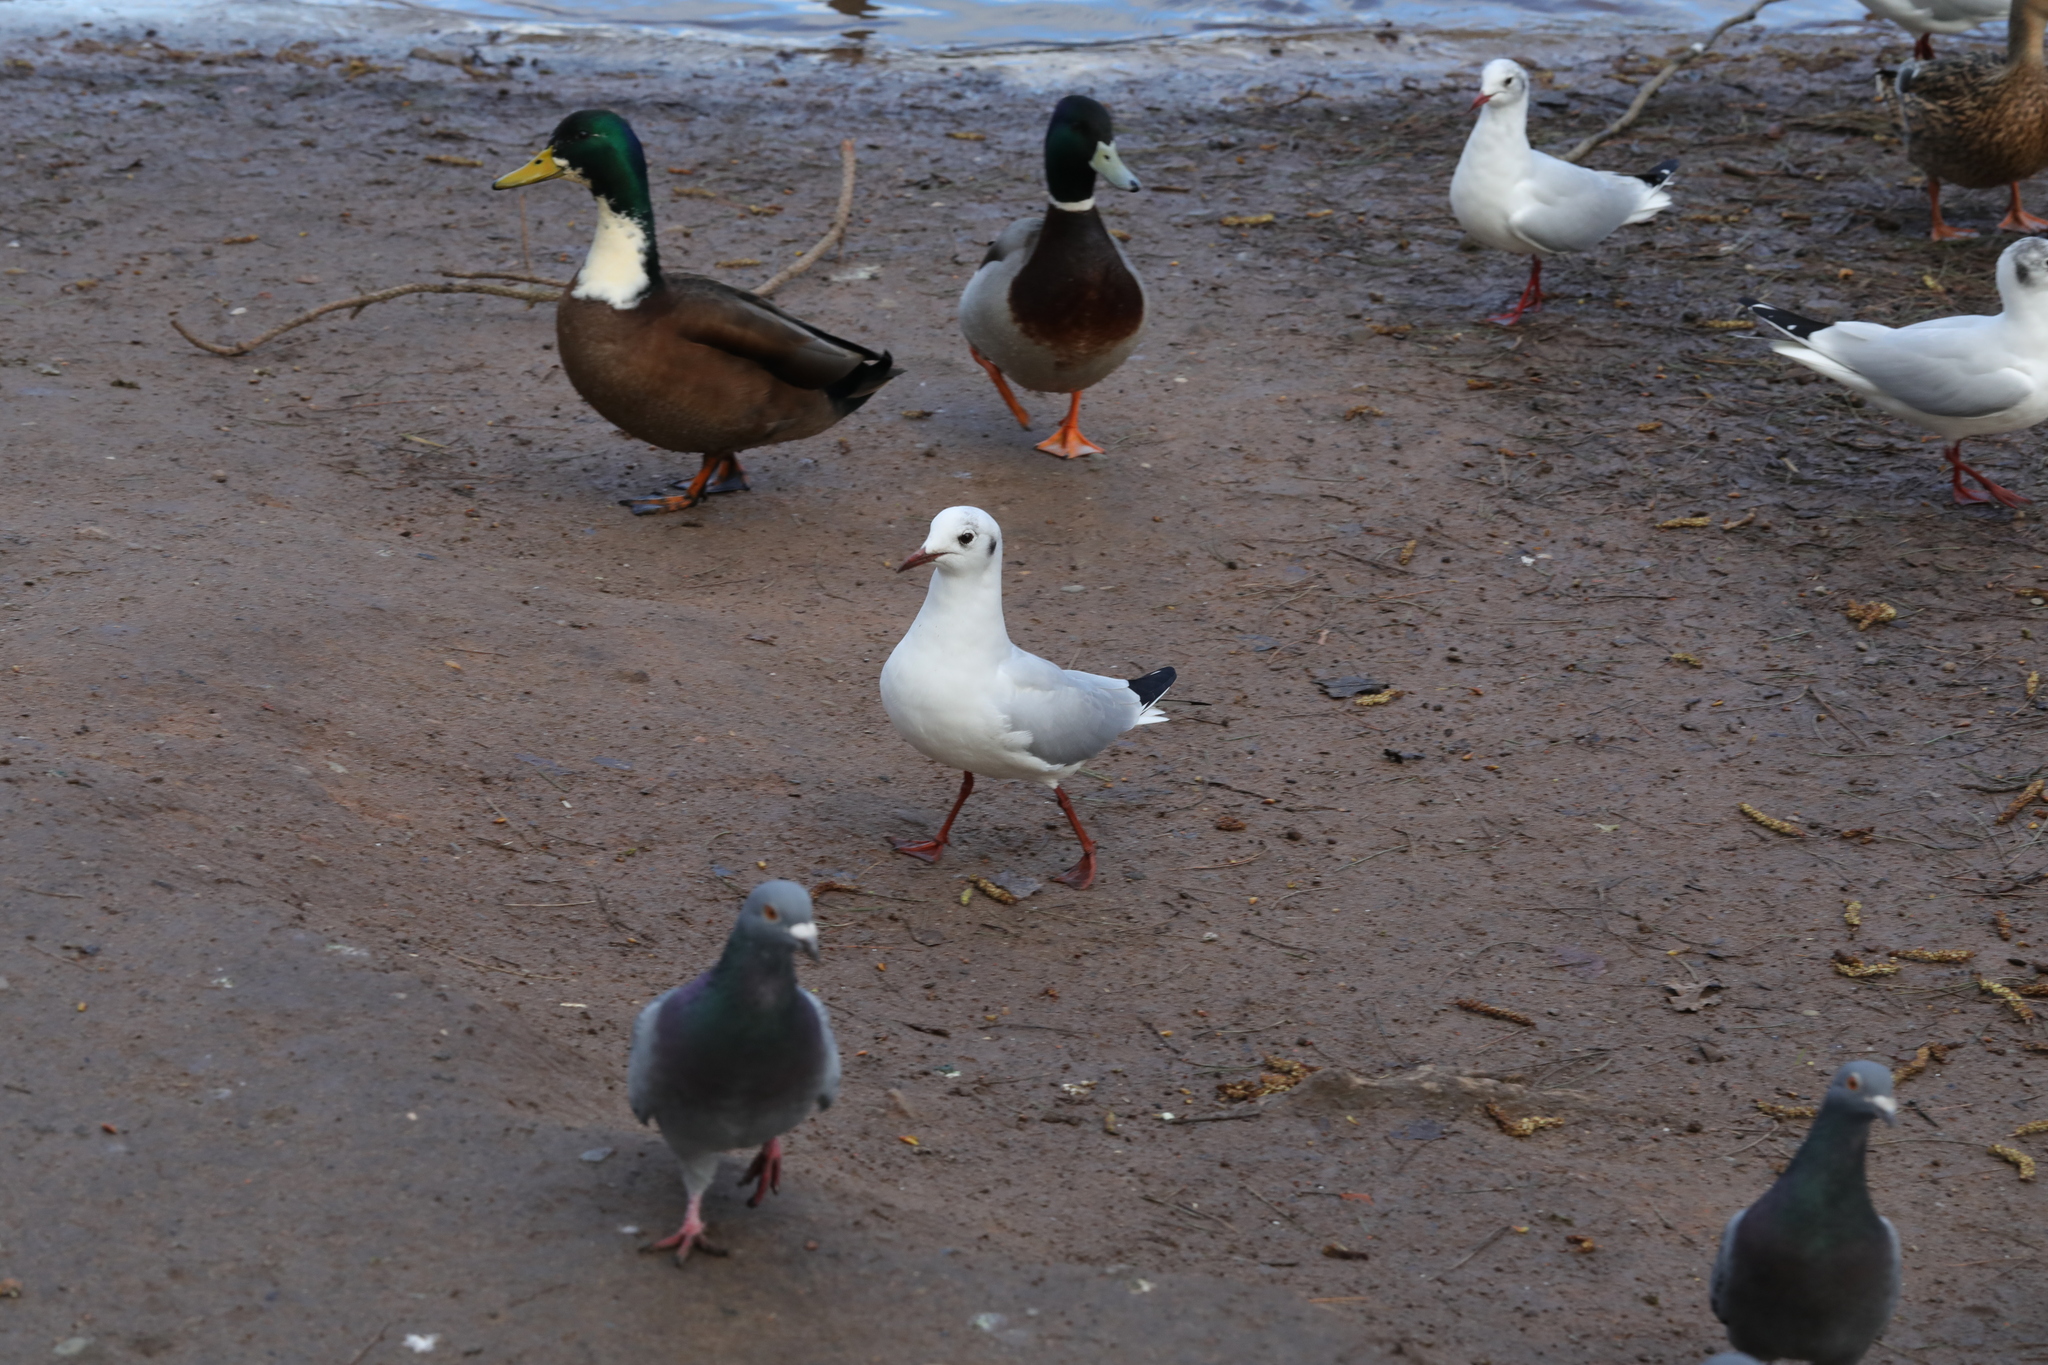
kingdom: Animalia
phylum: Chordata
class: Aves
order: Charadriiformes
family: Laridae
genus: Chroicocephalus
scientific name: Chroicocephalus ridibundus
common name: Black-headed gull
